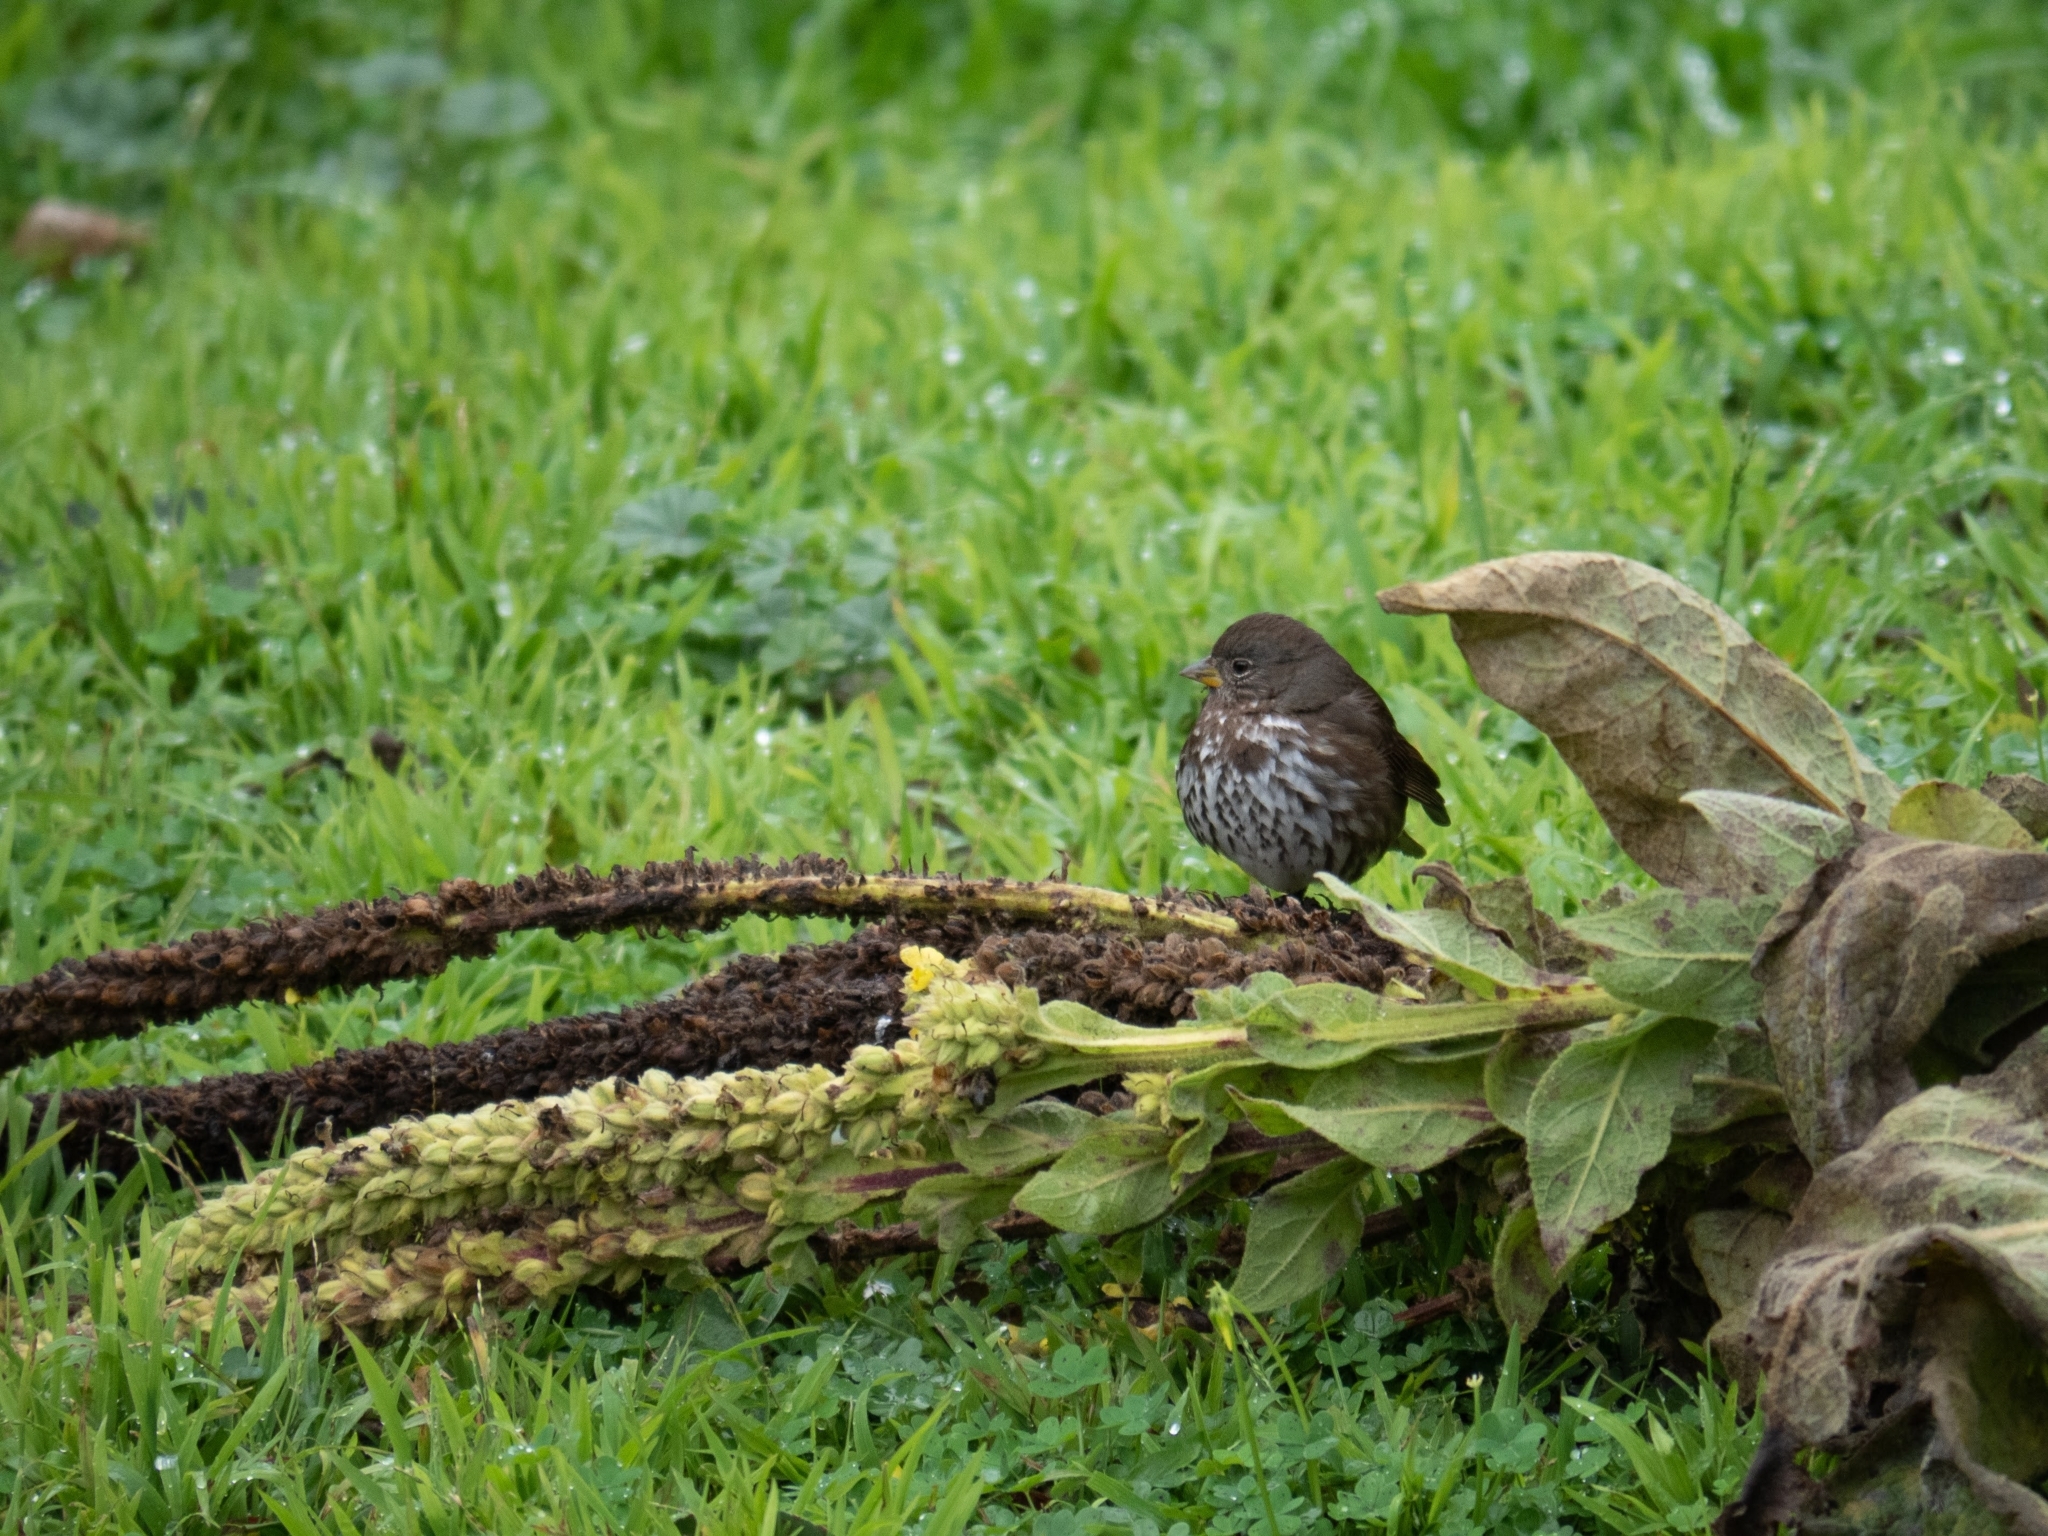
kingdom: Animalia
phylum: Chordata
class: Aves
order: Passeriformes
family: Passerellidae
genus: Passerella
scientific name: Passerella iliaca
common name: Fox sparrow
